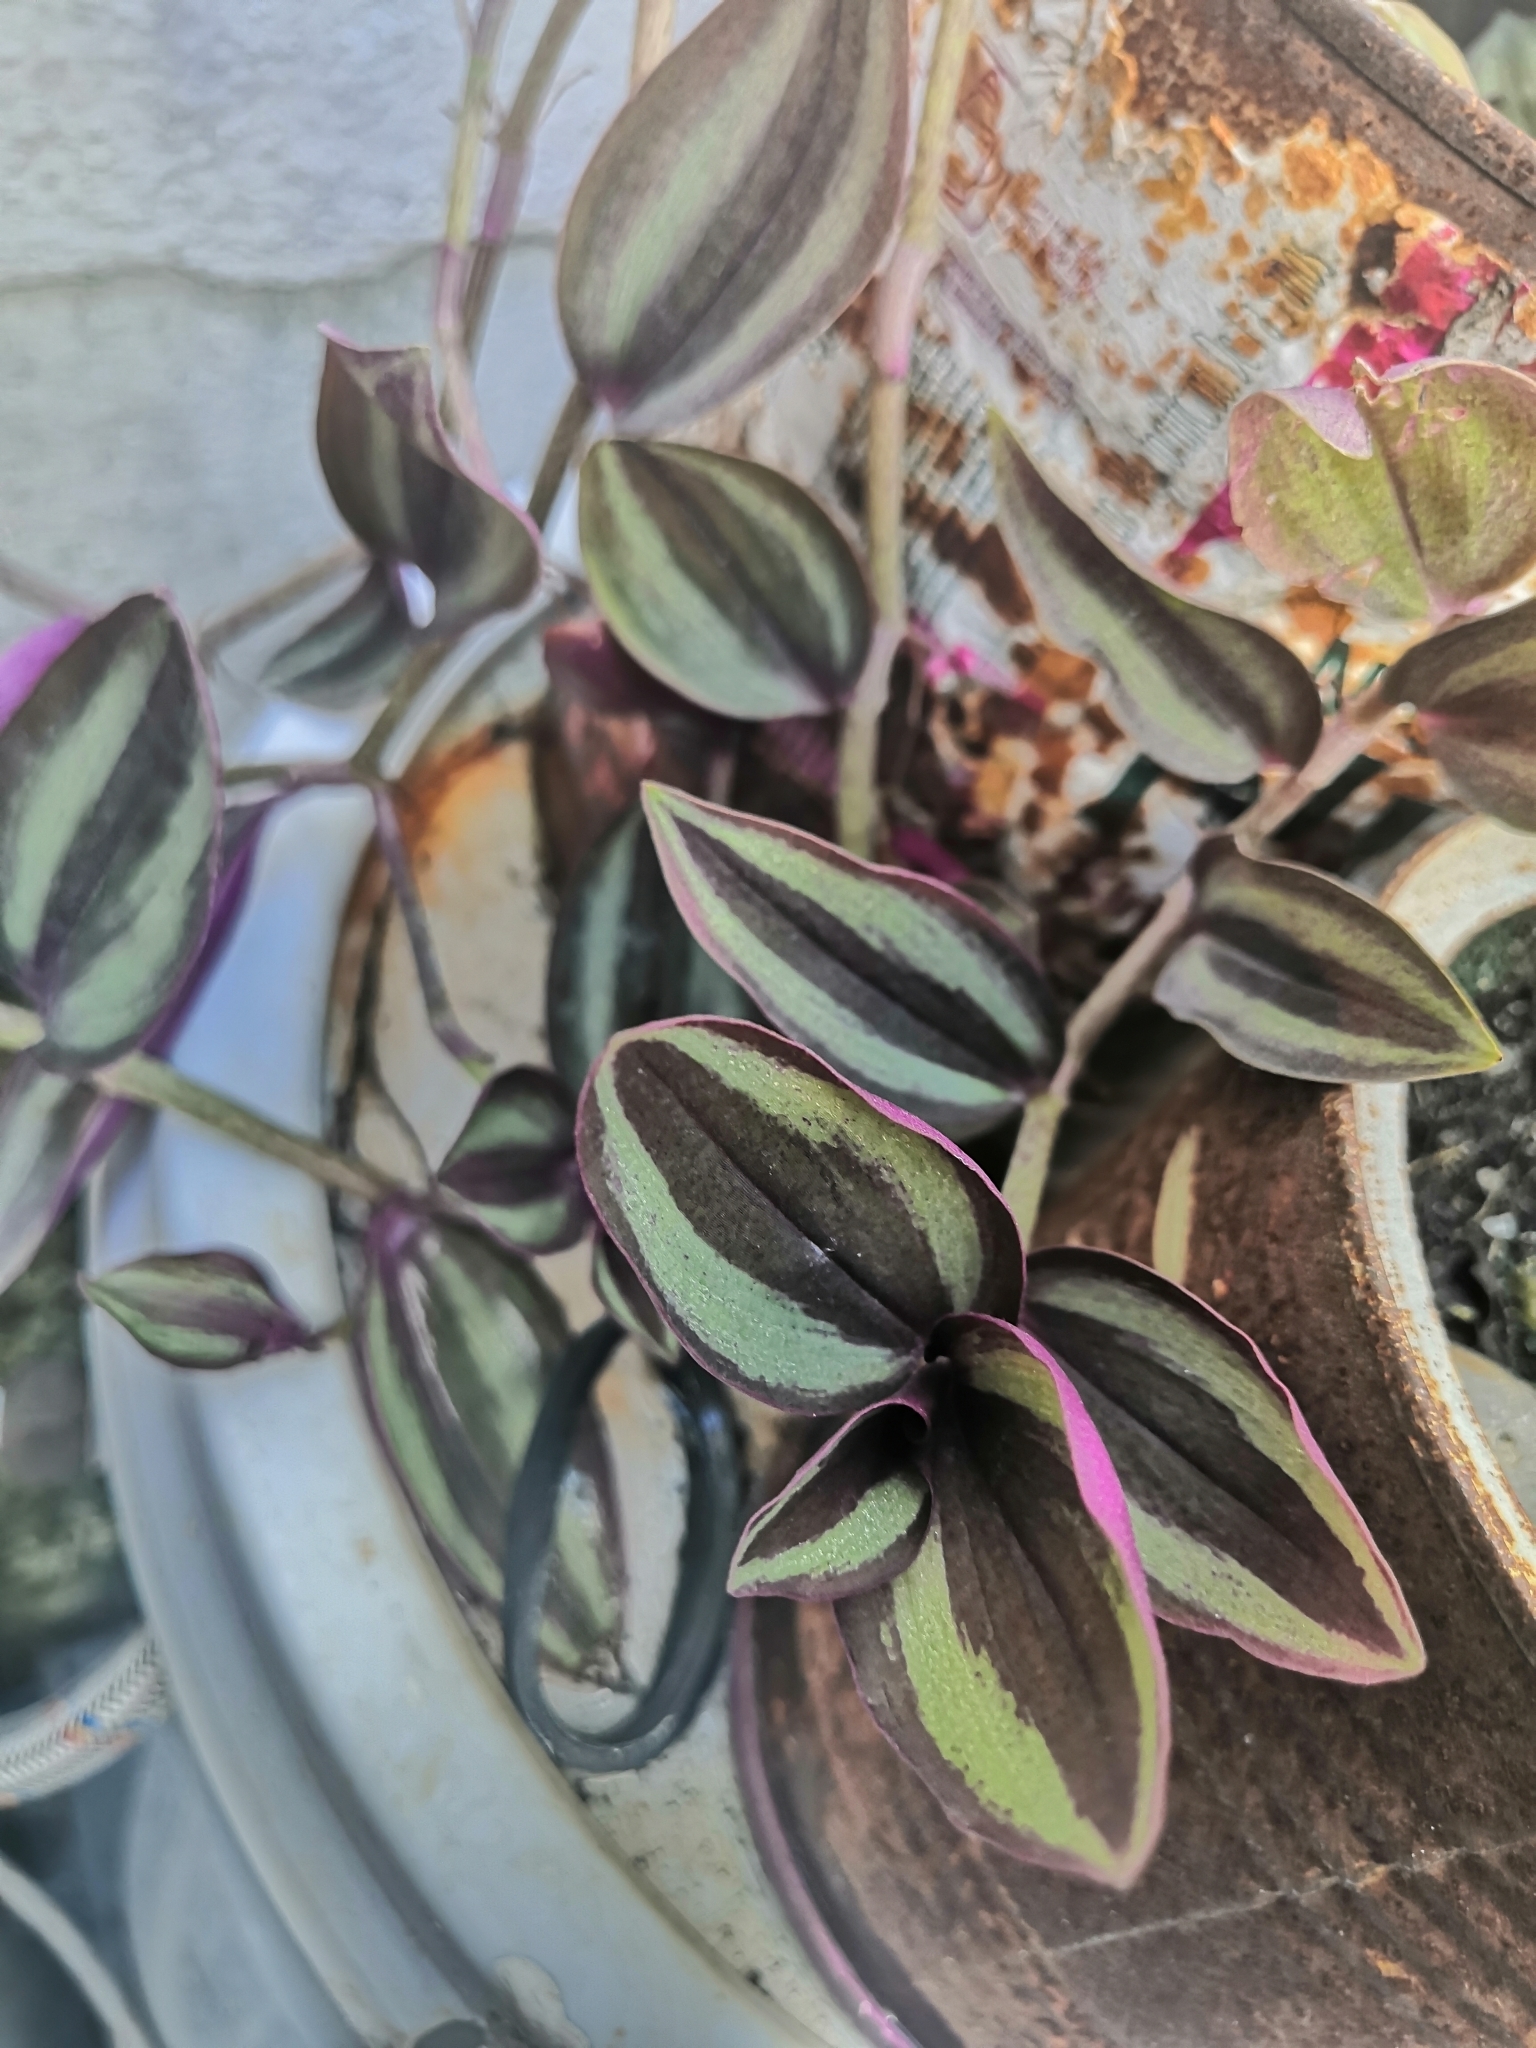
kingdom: Plantae
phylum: Tracheophyta
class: Liliopsida
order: Commelinales
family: Commelinaceae
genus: Tradescantia
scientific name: Tradescantia zebrina
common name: Inchplant
